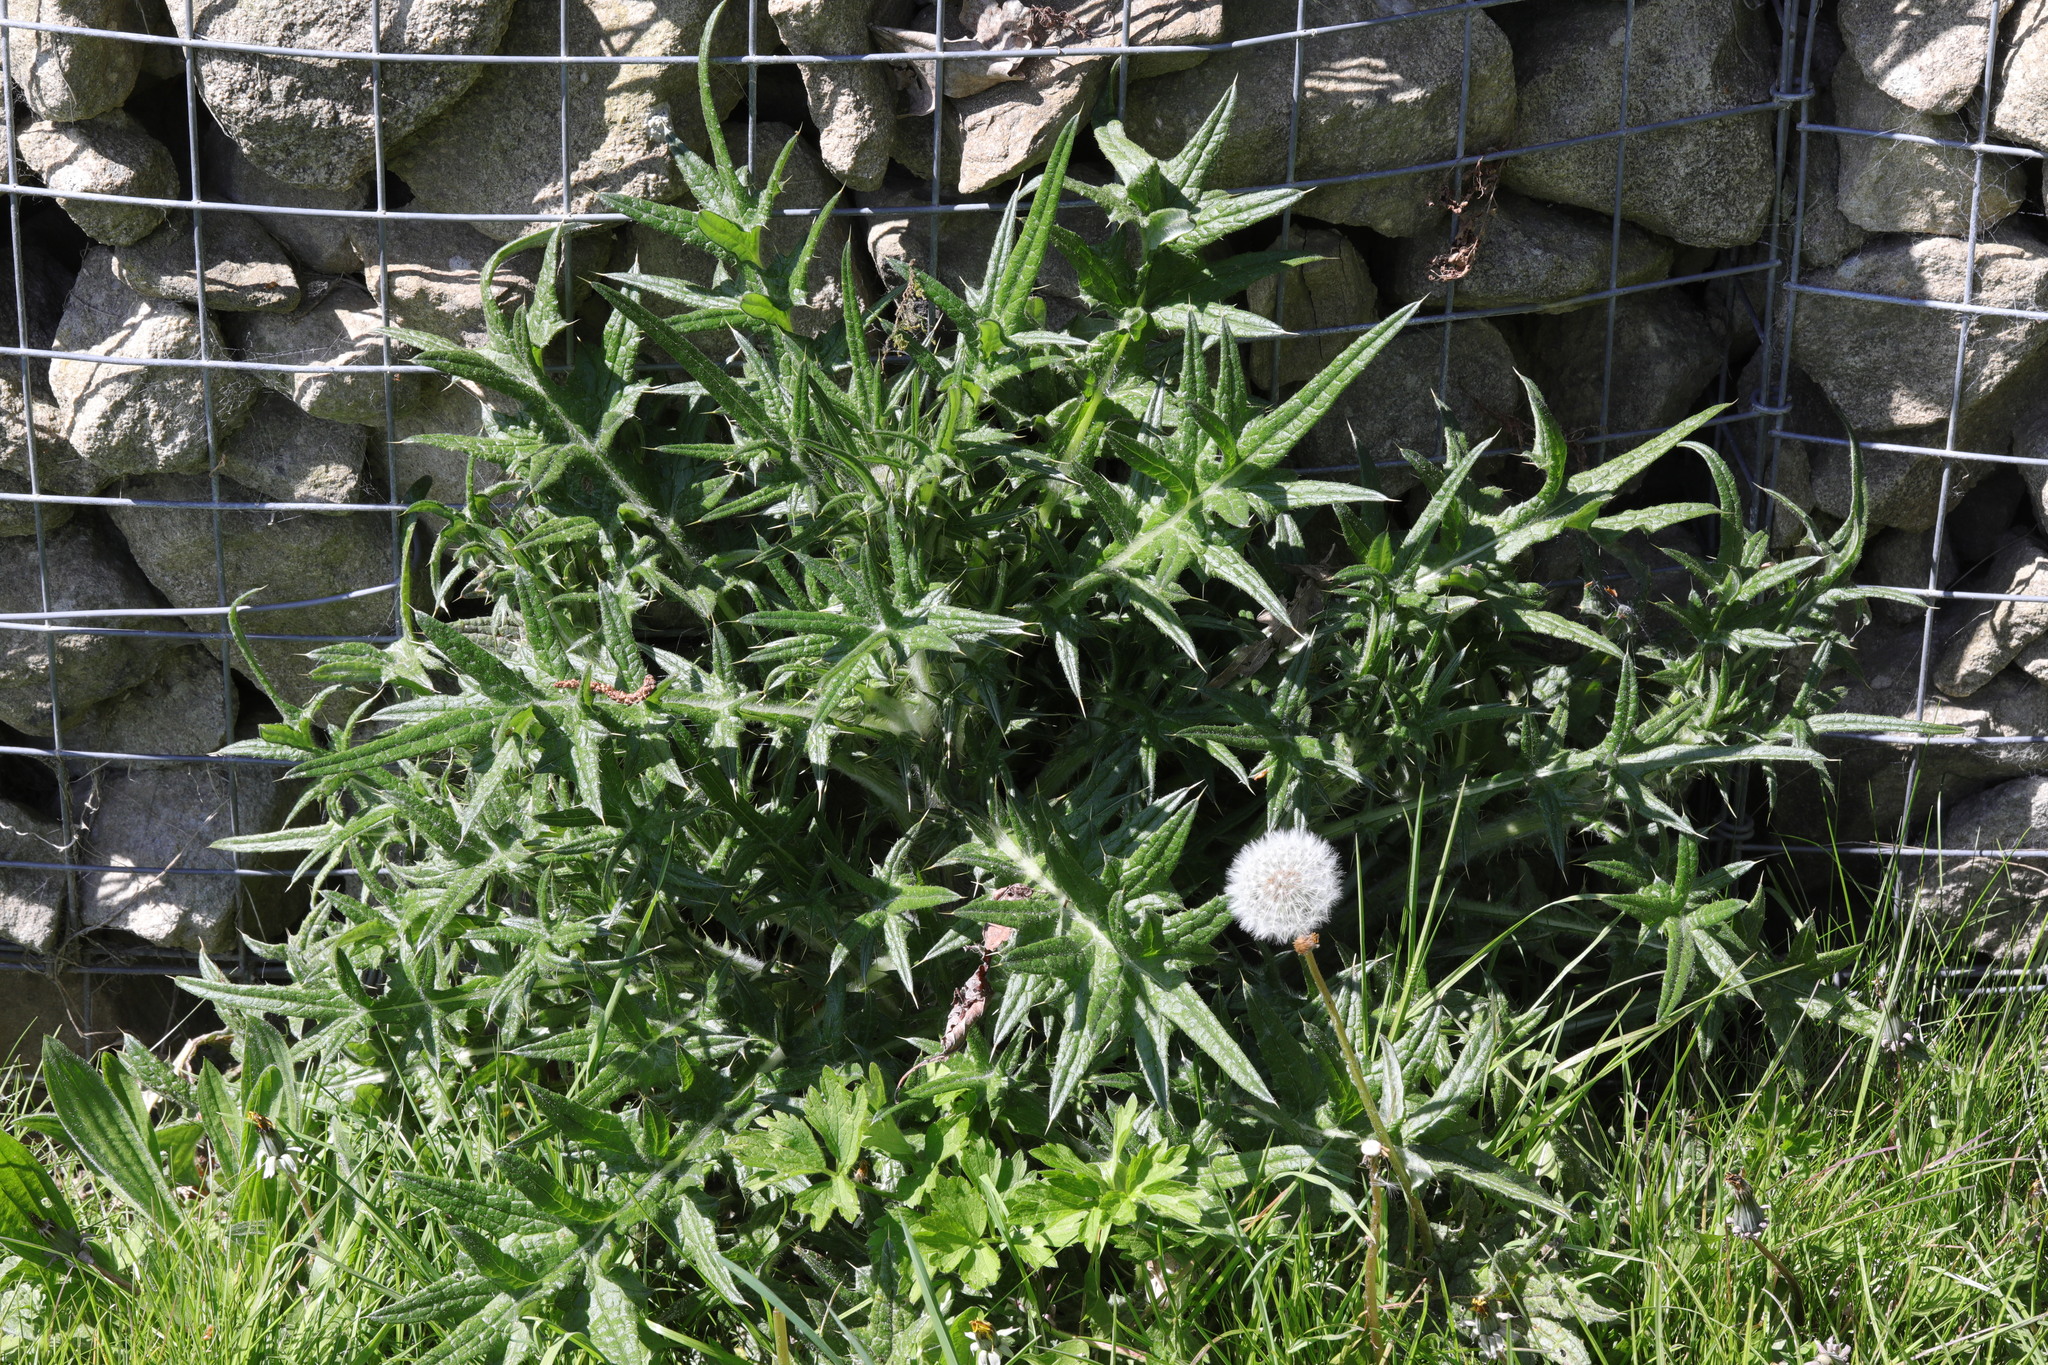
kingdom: Plantae
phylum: Tracheophyta
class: Magnoliopsida
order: Asterales
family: Asteraceae
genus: Cirsium
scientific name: Cirsium vulgare
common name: Bull thistle
